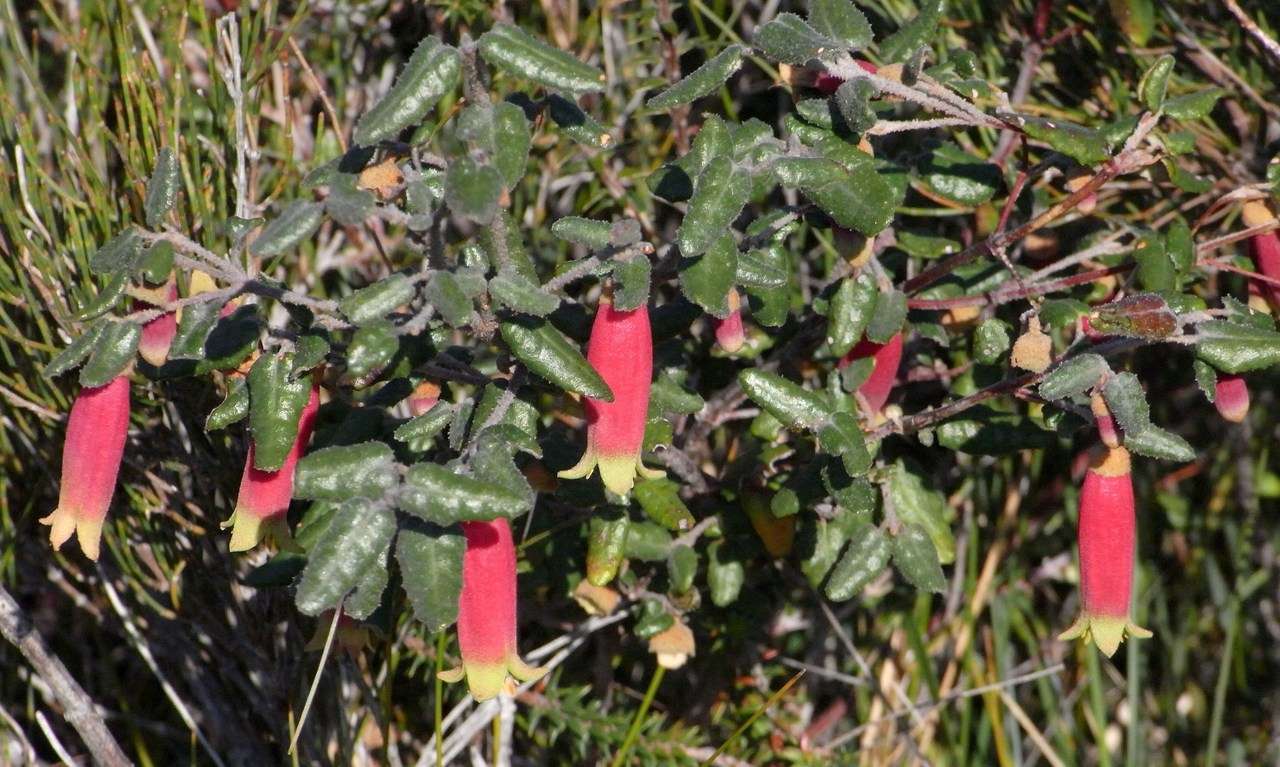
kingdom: Plantae
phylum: Tracheophyta
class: Magnoliopsida
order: Sapindales
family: Rutaceae
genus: Correa
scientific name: Correa reflexa
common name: Common correa
